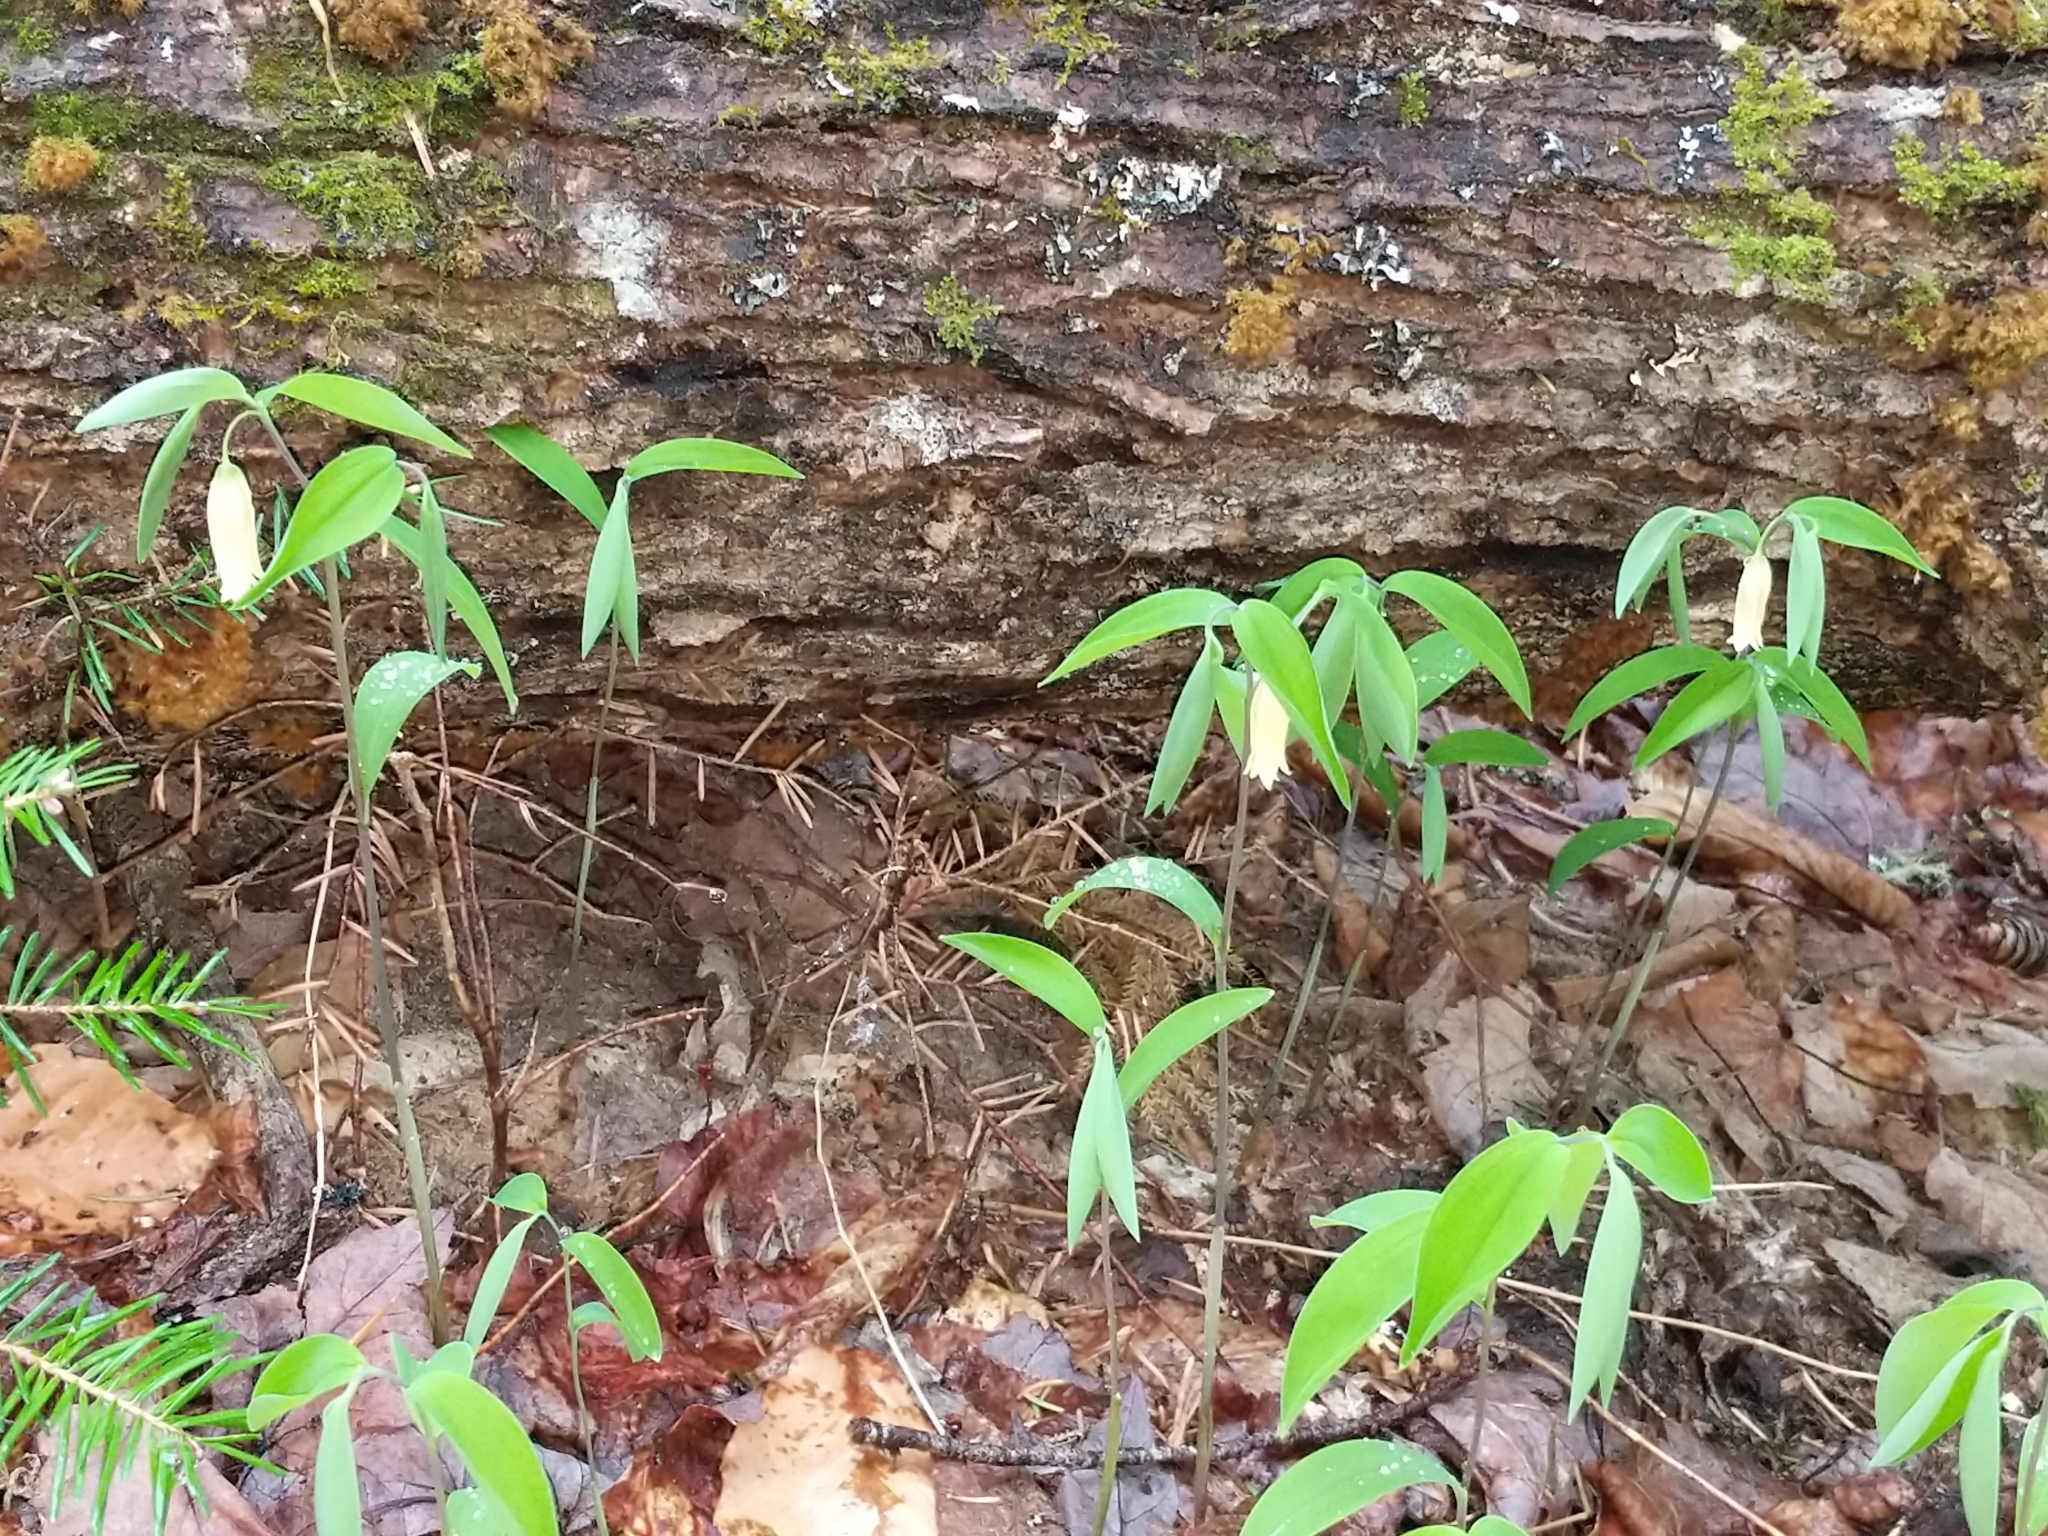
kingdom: Plantae
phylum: Tracheophyta
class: Liliopsida
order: Liliales
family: Colchicaceae
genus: Uvularia
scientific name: Uvularia sessilifolia
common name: Straw-lily
